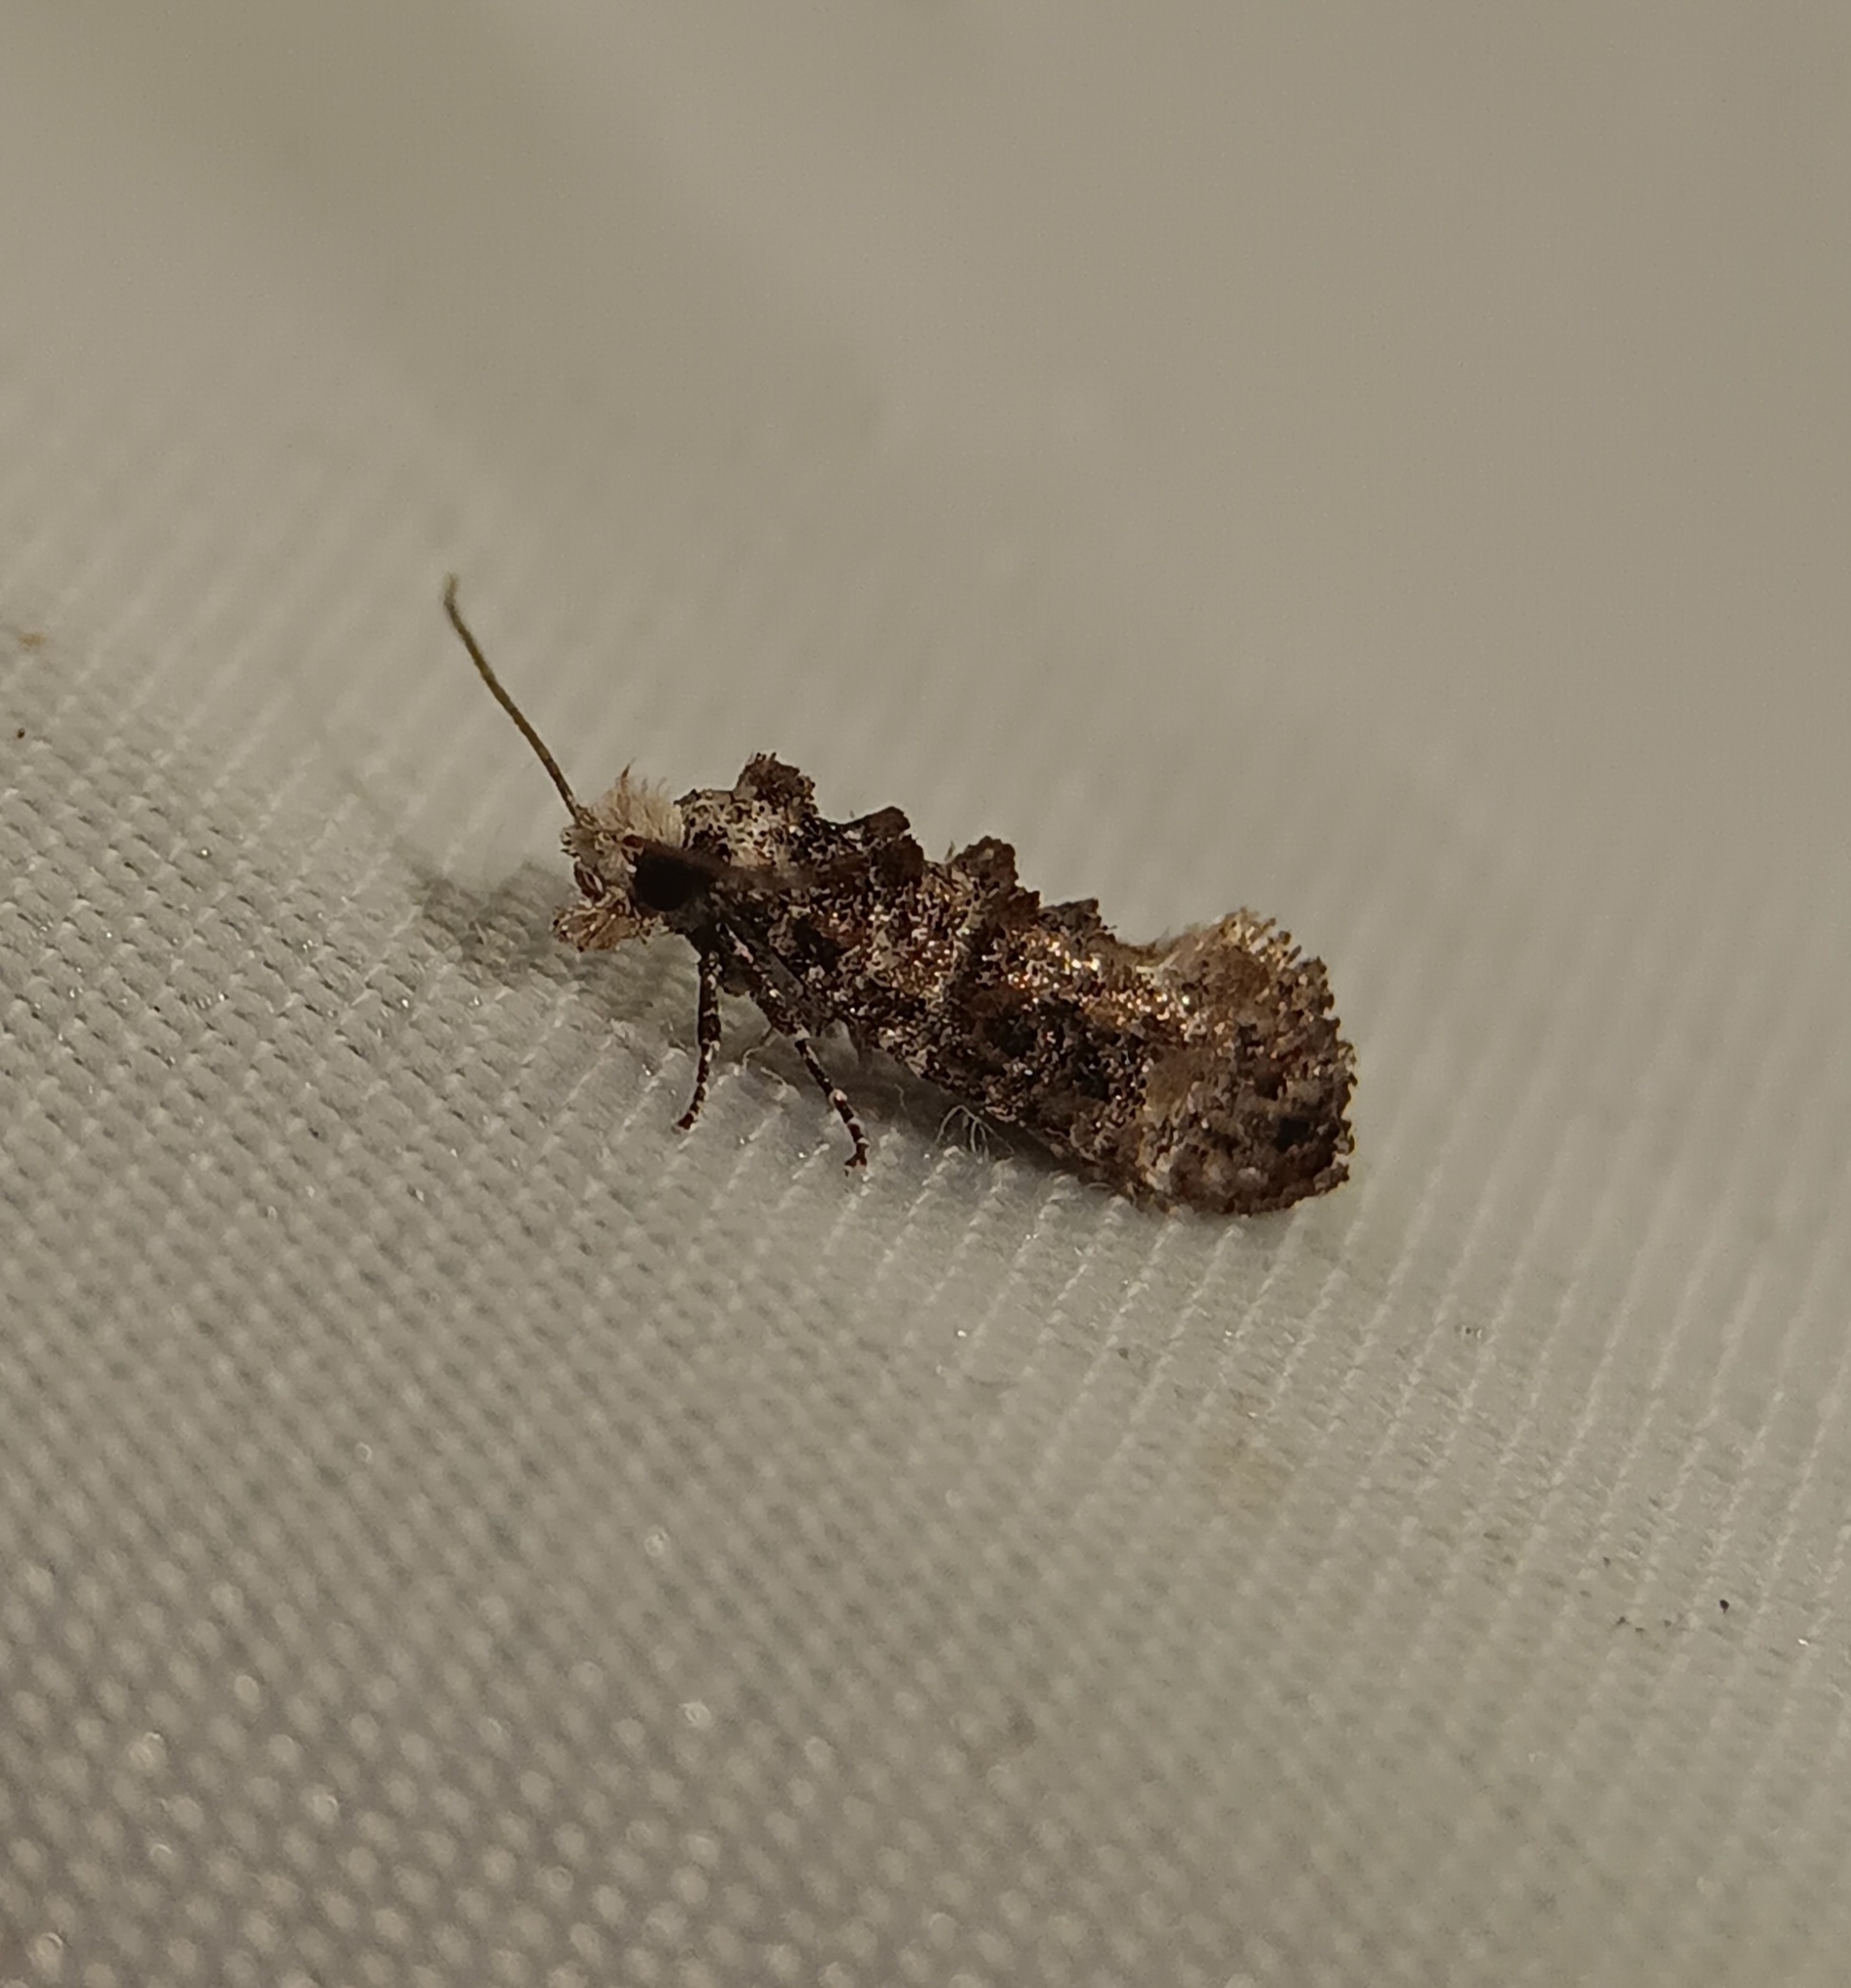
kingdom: Animalia
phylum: Arthropoda
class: Insecta
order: Lepidoptera
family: Tineidae
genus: Xylesthia
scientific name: Xylesthia pruniramiella
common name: Clemens' bark moth
